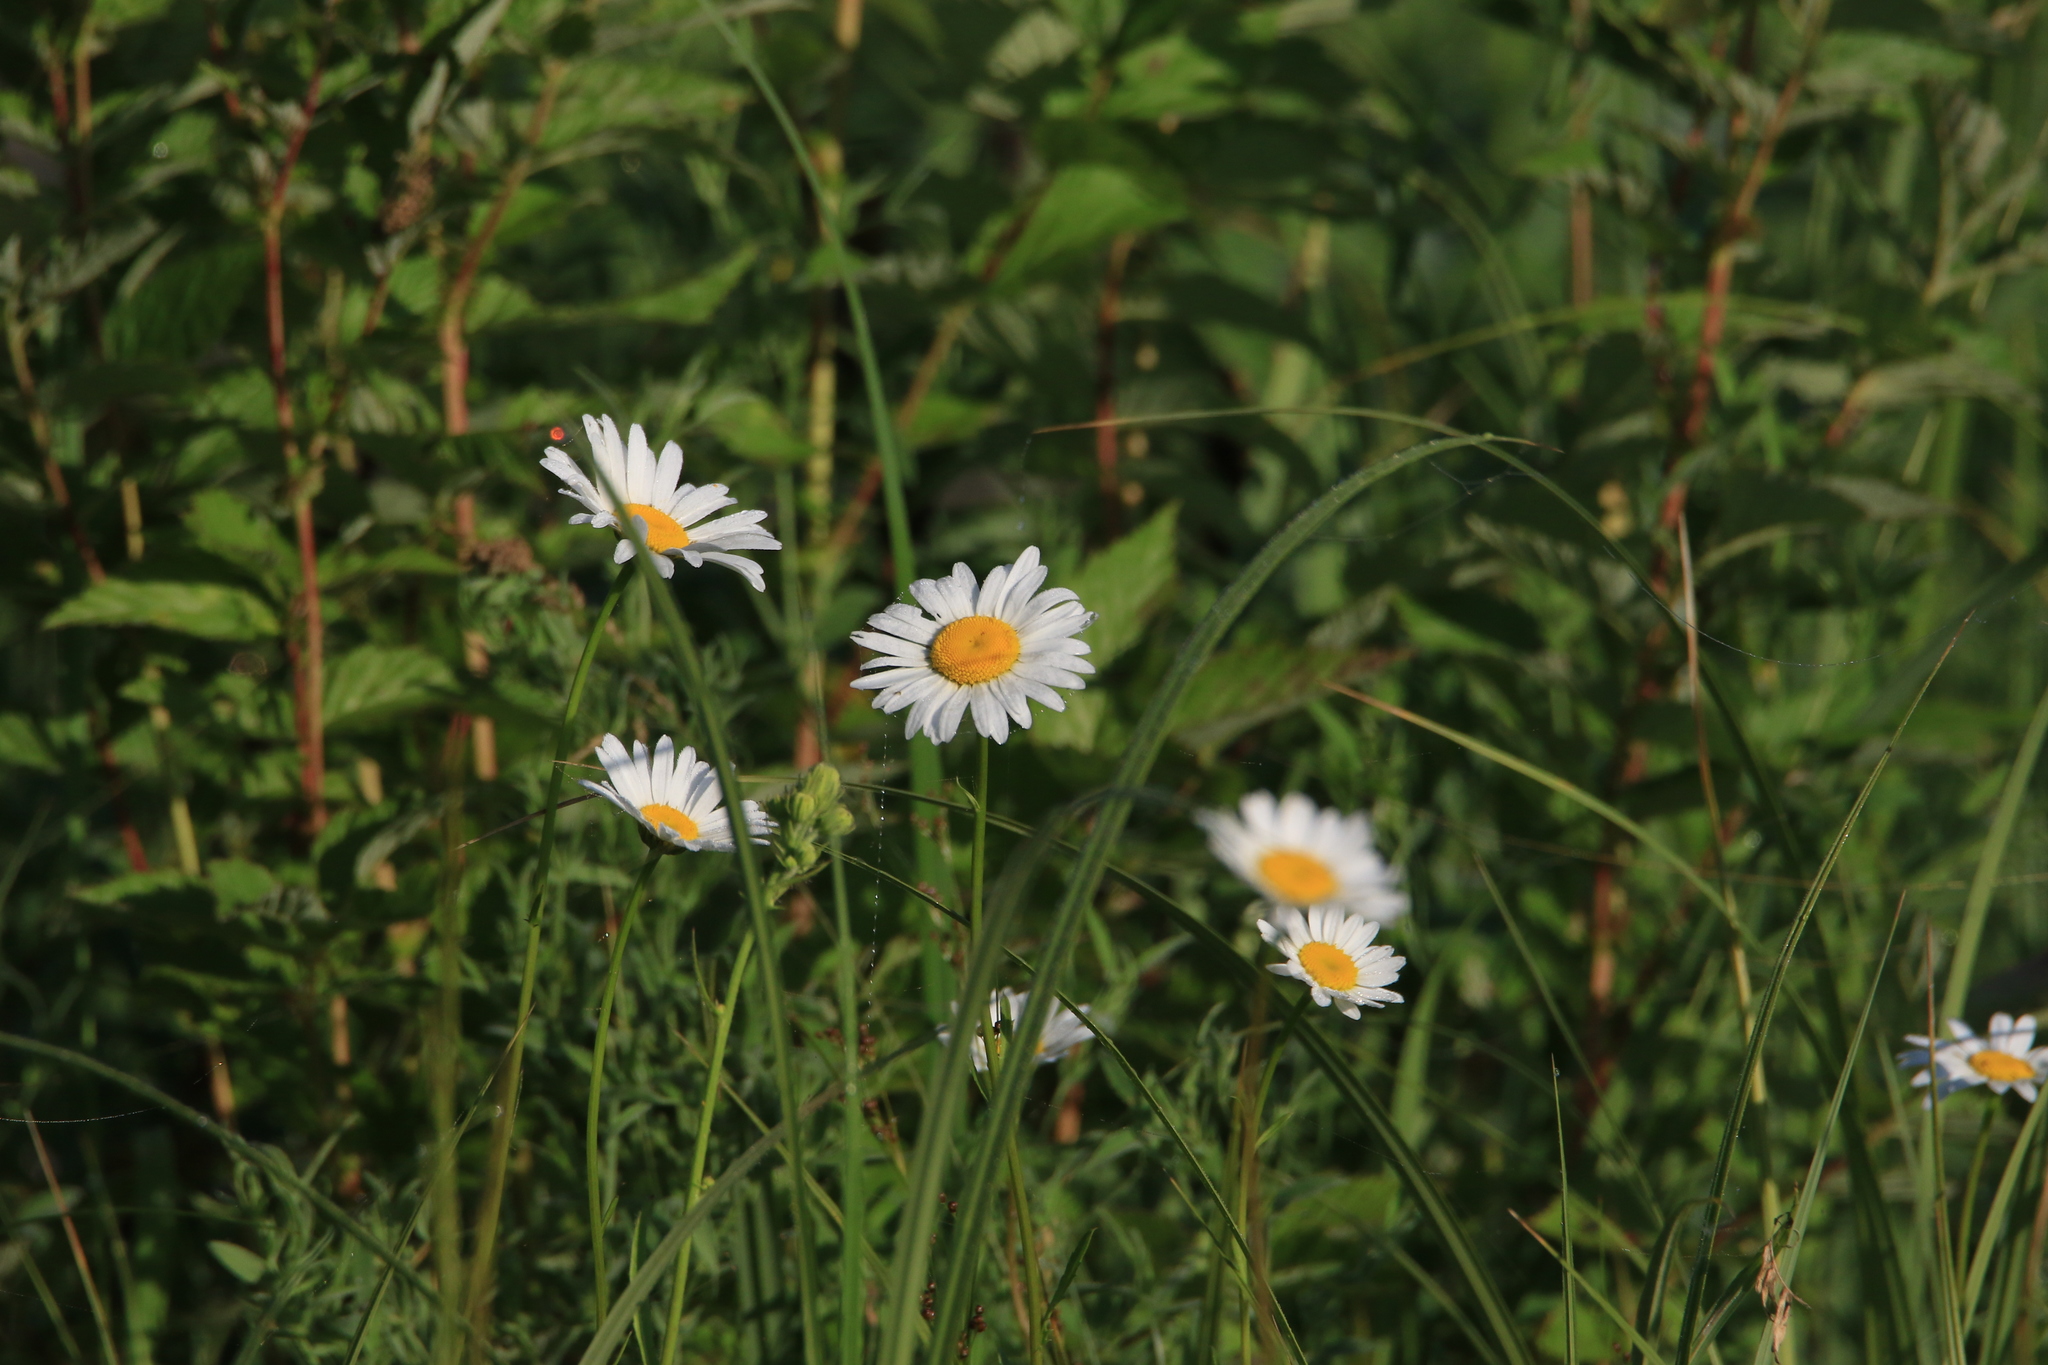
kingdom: Plantae
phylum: Tracheophyta
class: Magnoliopsida
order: Asterales
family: Asteraceae
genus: Leucanthemum
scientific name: Leucanthemum vulgare
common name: Oxeye daisy
